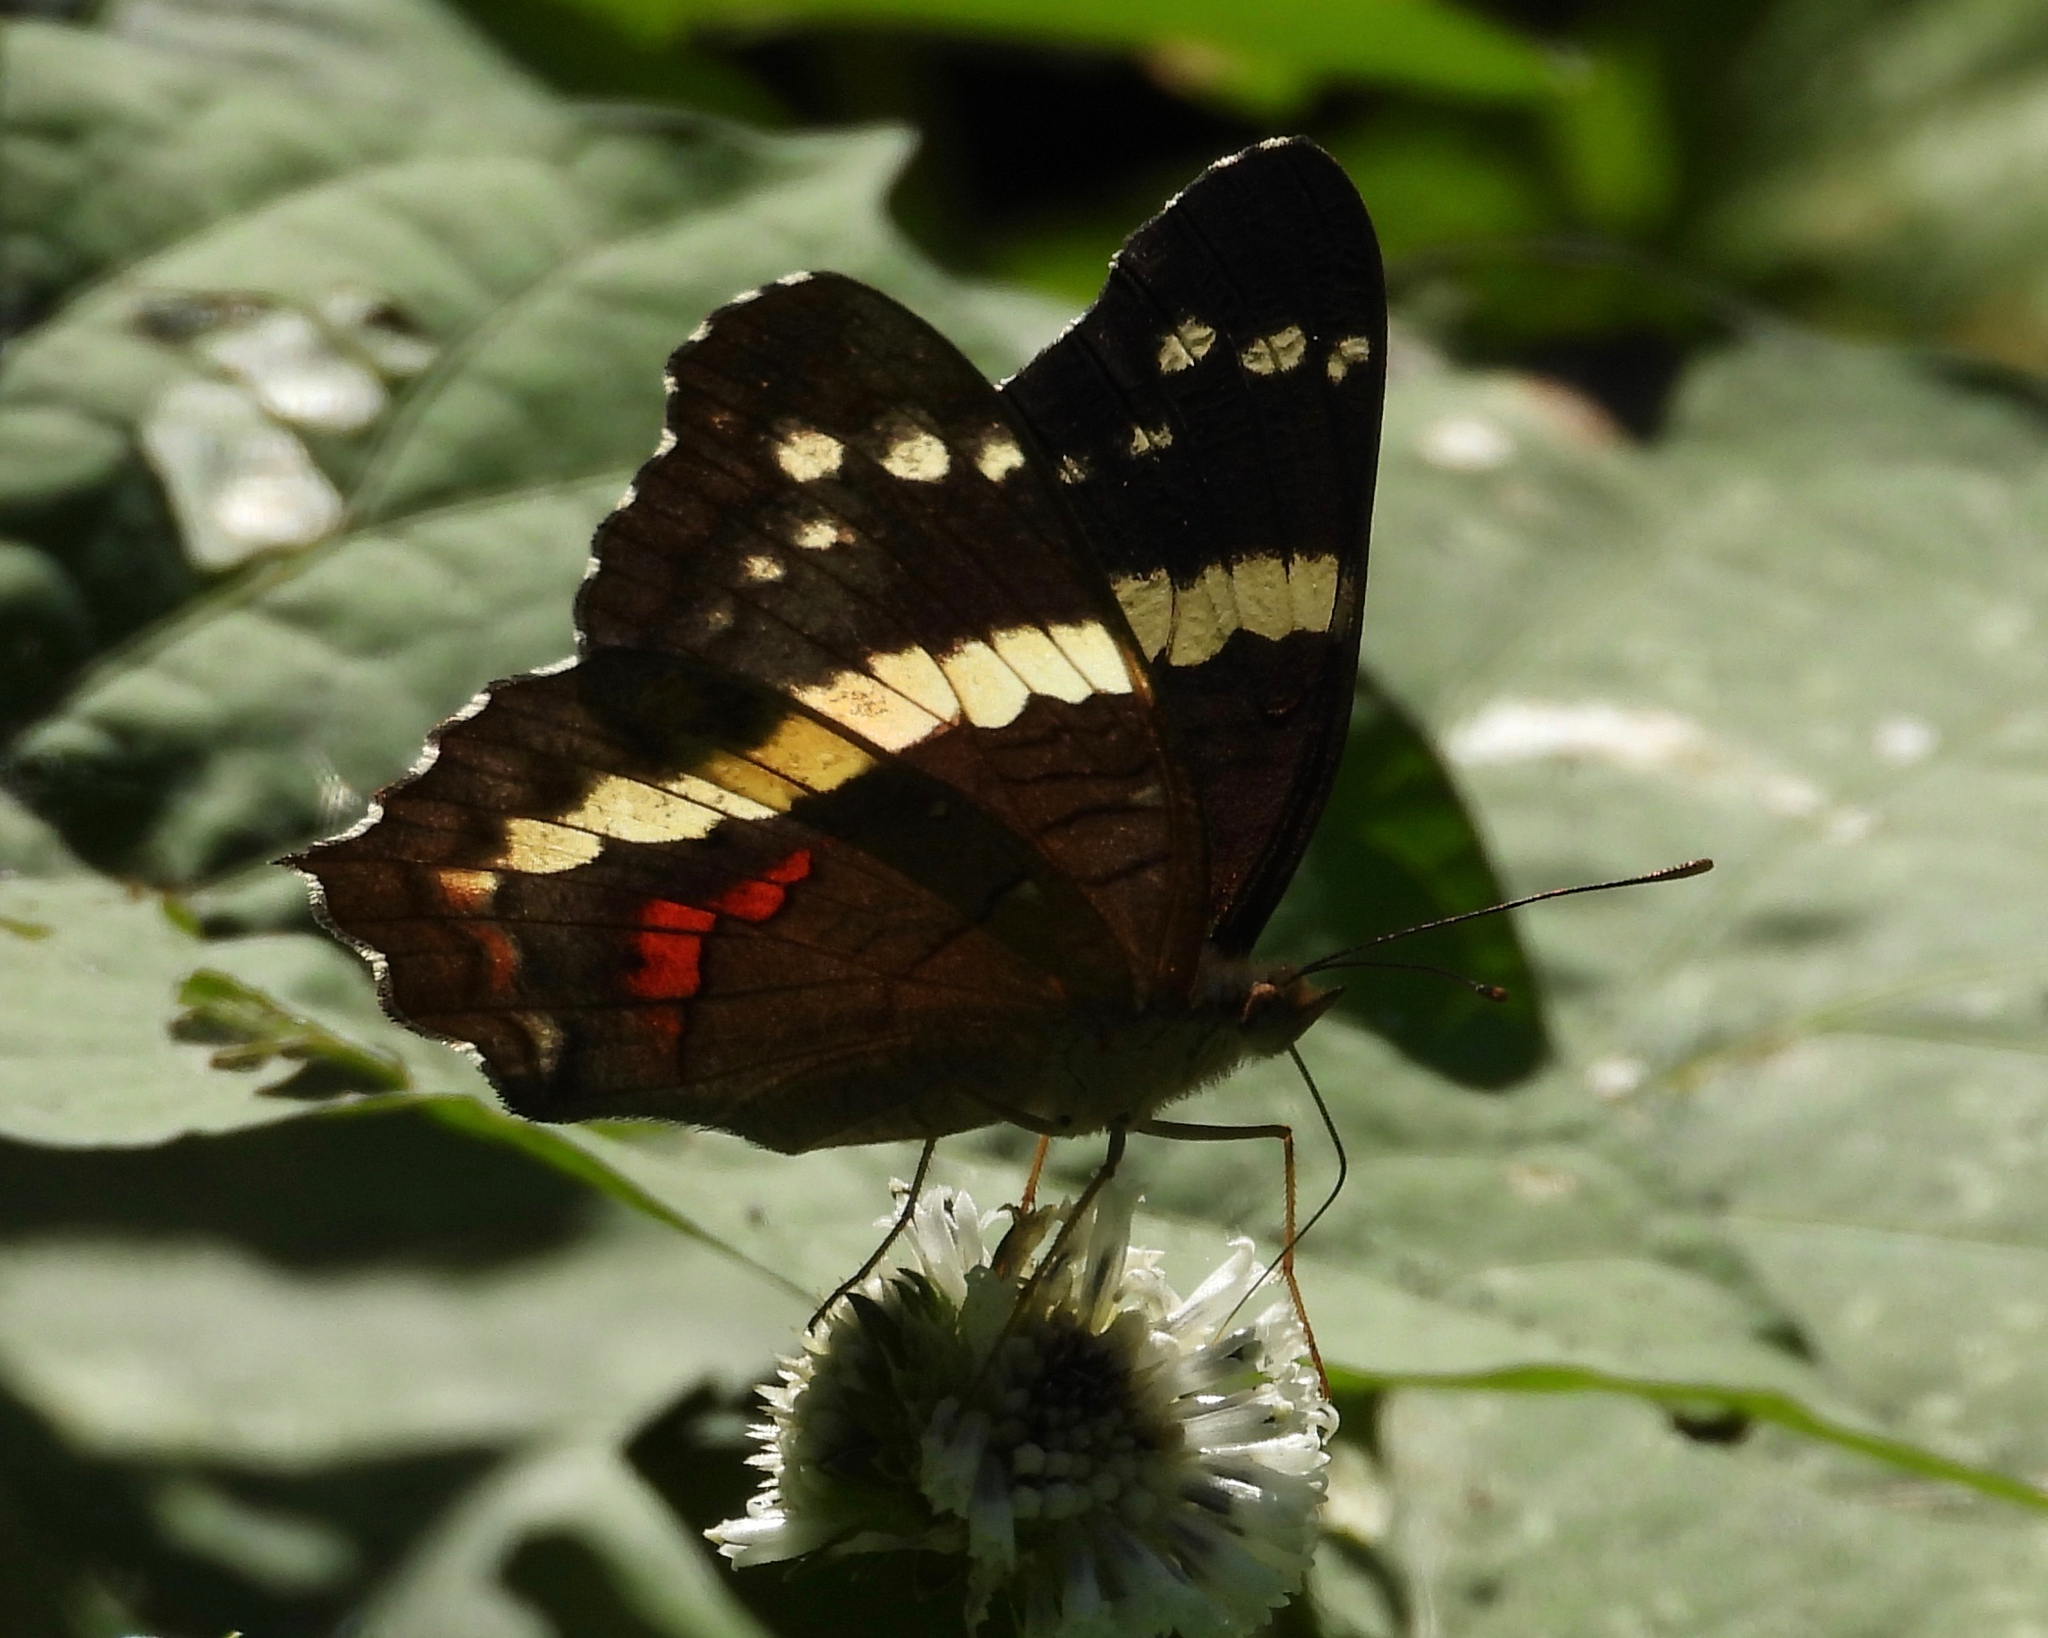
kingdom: Animalia
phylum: Arthropoda
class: Insecta
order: Lepidoptera
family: Nymphalidae
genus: Anartia
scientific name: Anartia fatima
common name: Banded peacock
